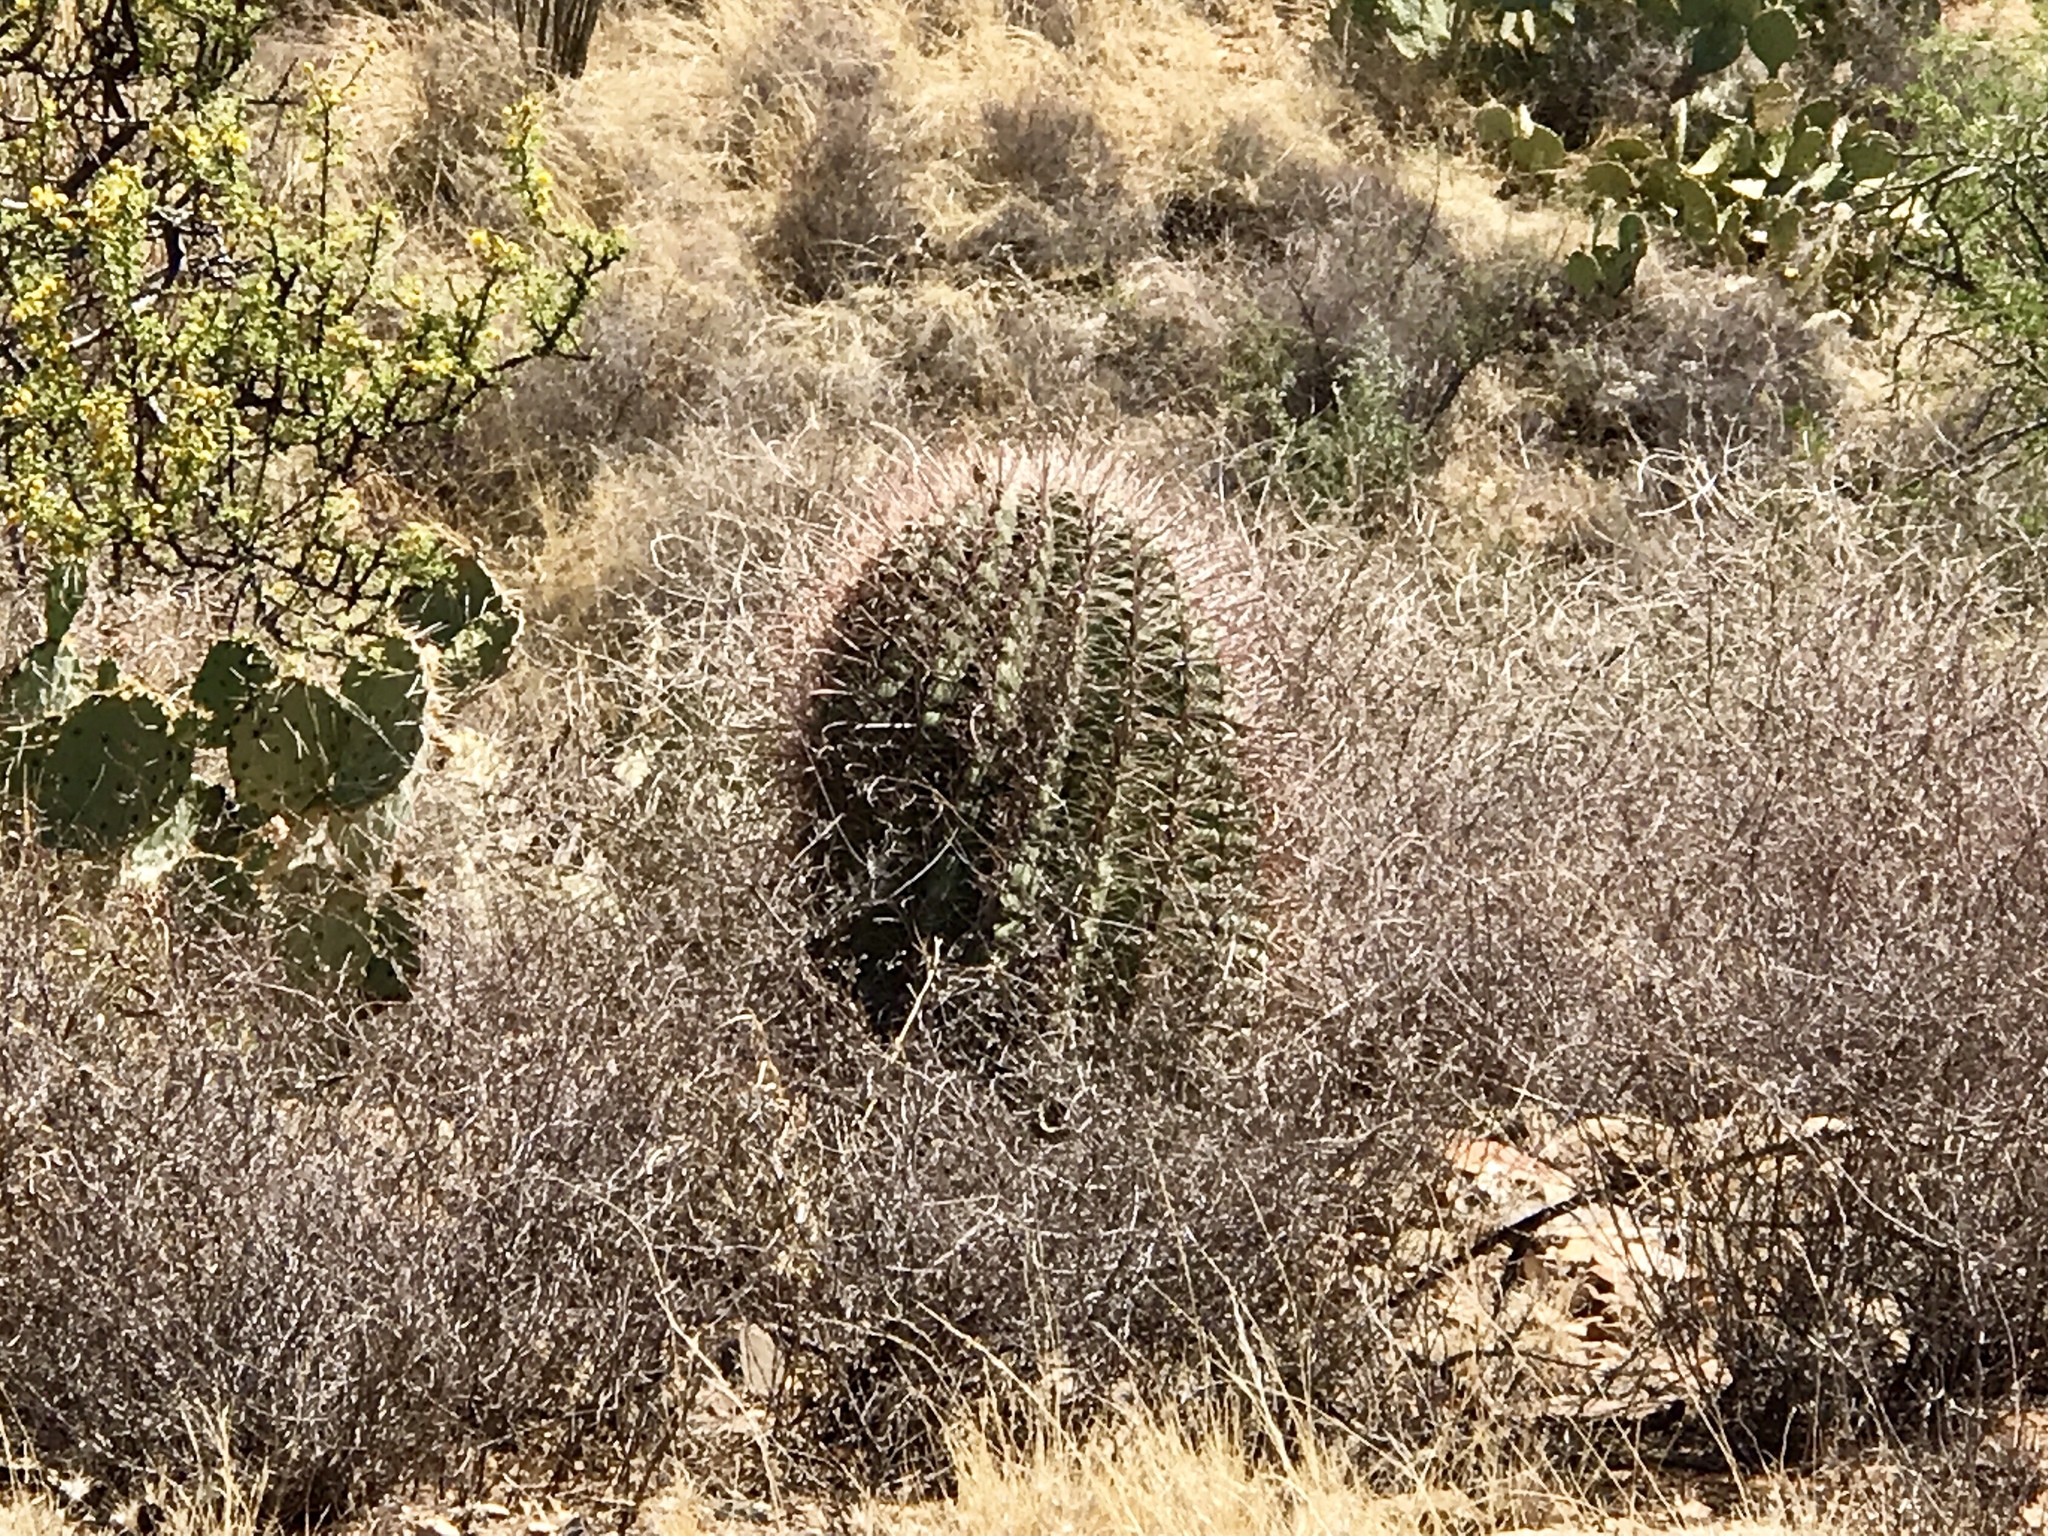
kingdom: Plantae
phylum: Tracheophyta
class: Magnoliopsida
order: Caryophyllales
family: Cactaceae
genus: Ferocactus
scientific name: Ferocactus wislizeni
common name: Candy barrel cactus
